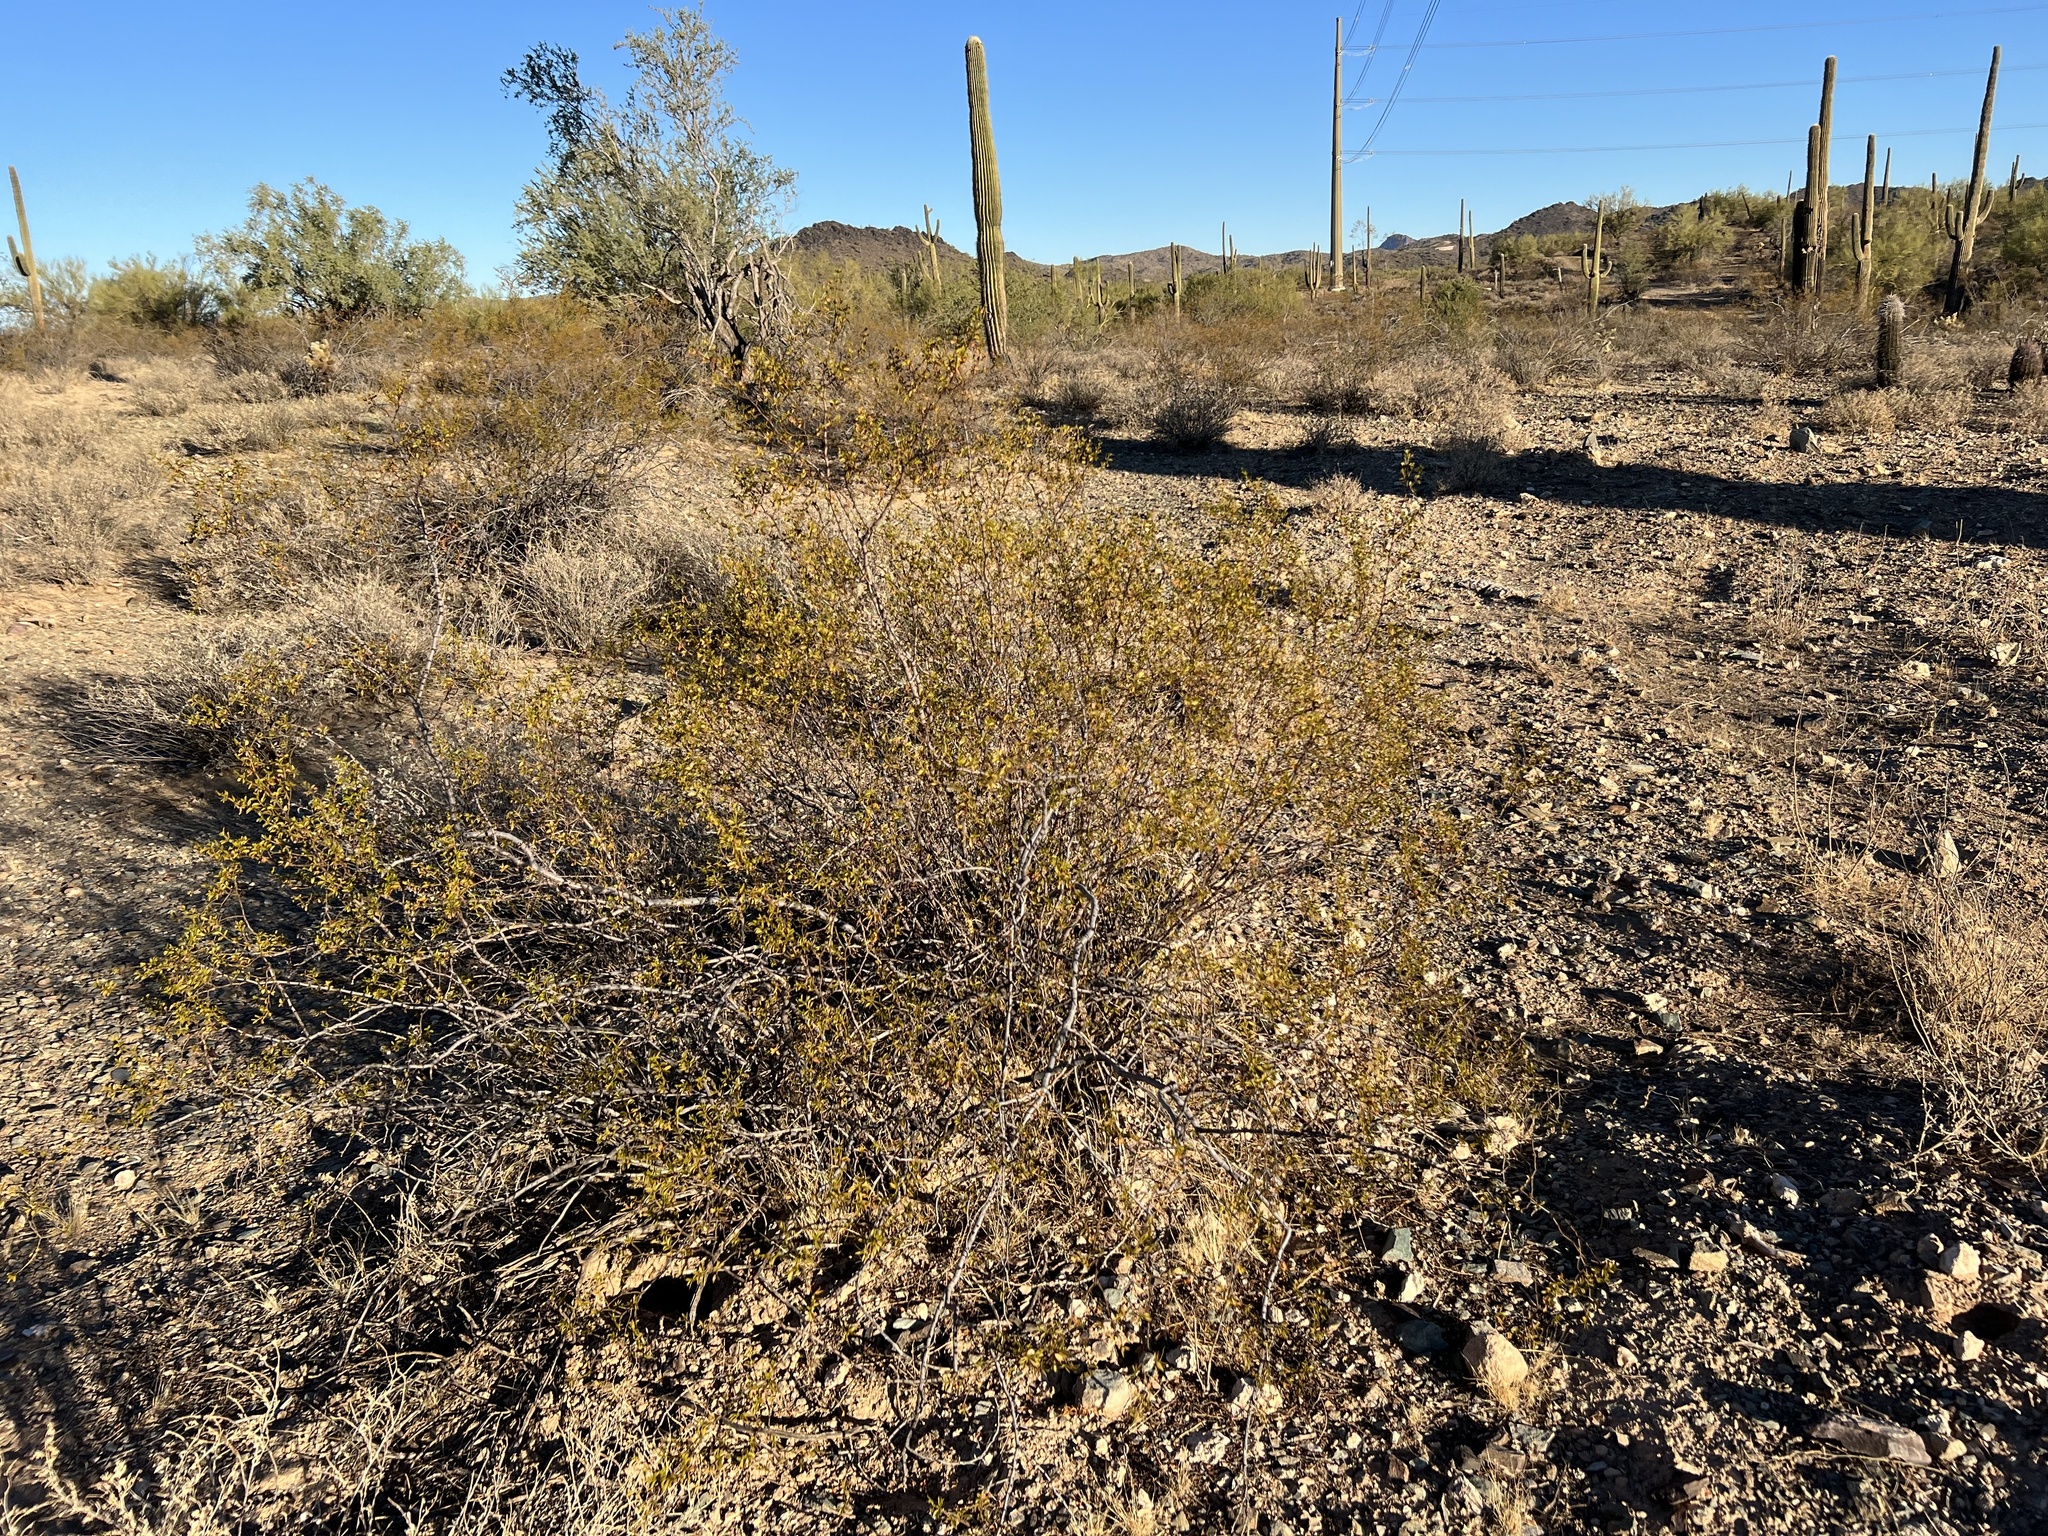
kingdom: Plantae
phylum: Tracheophyta
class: Magnoliopsida
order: Zygophyllales
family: Zygophyllaceae
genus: Larrea
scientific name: Larrea tridentata
